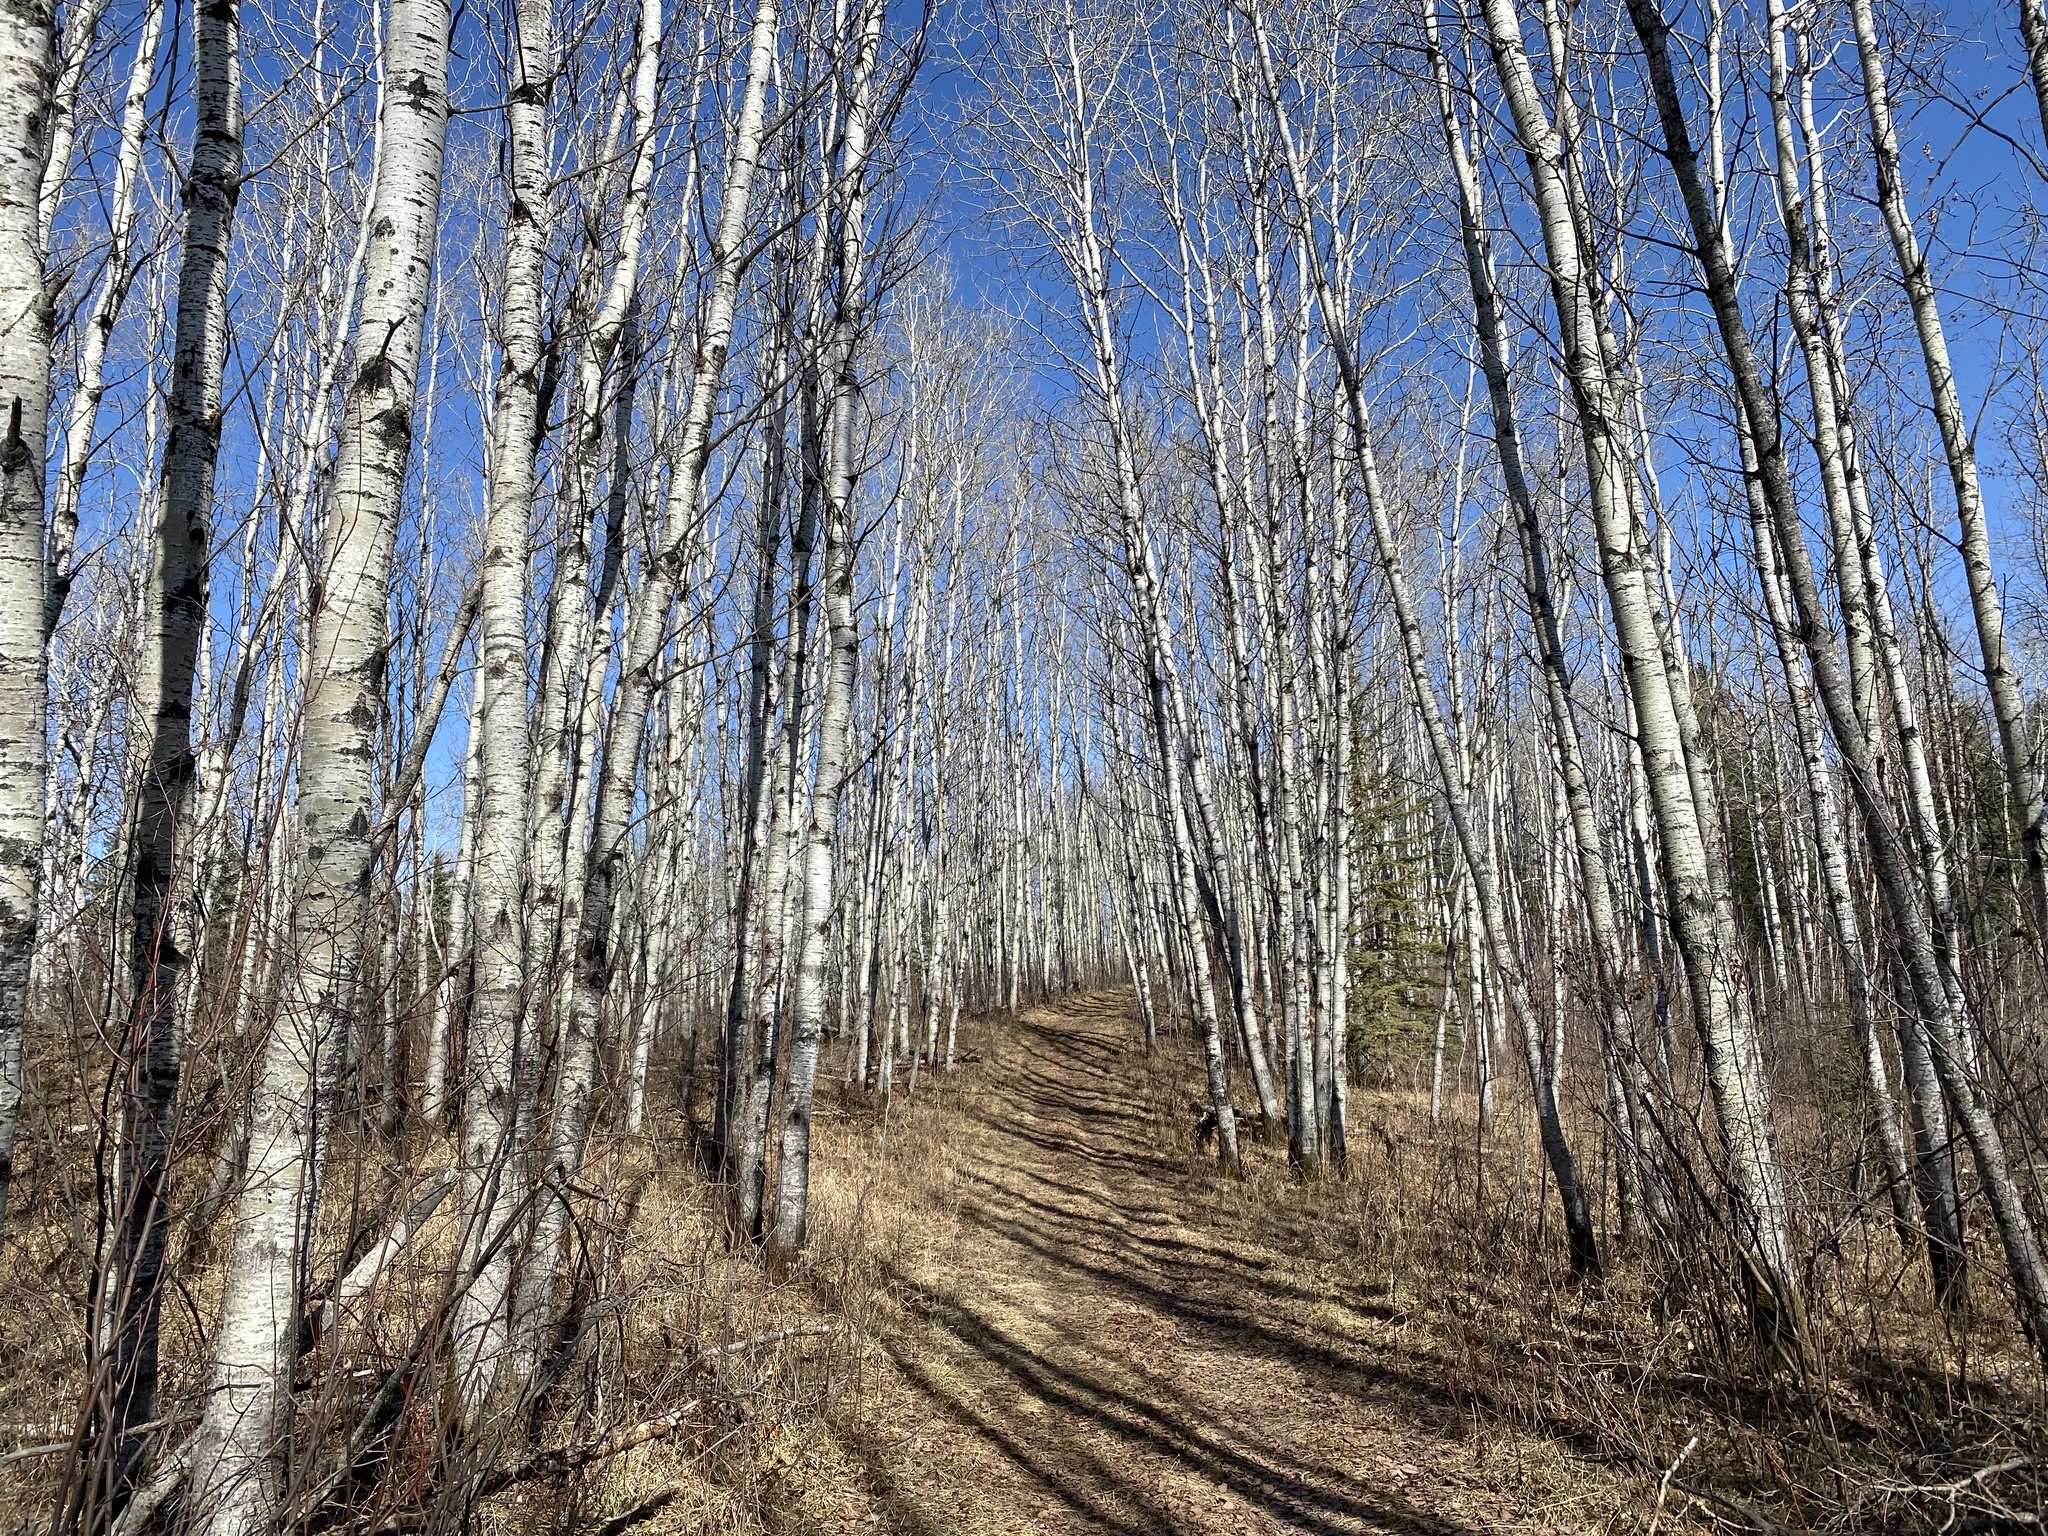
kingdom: Plantae
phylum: Tracheophyta
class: Magnoliopsida
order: Malpighiales
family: Salicaceae
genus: Populus
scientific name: Populus tremuloides
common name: Quaking aspen
